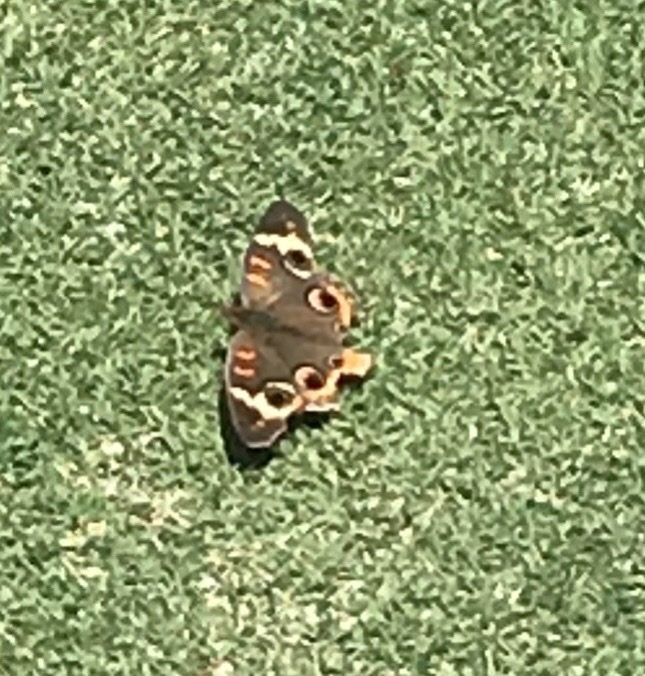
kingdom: Animalia
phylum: Arthropoda
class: Insecta
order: Lepidoptera
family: Nymphalidae
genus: Junonia
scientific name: Junonia coenia
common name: Common buckeye
